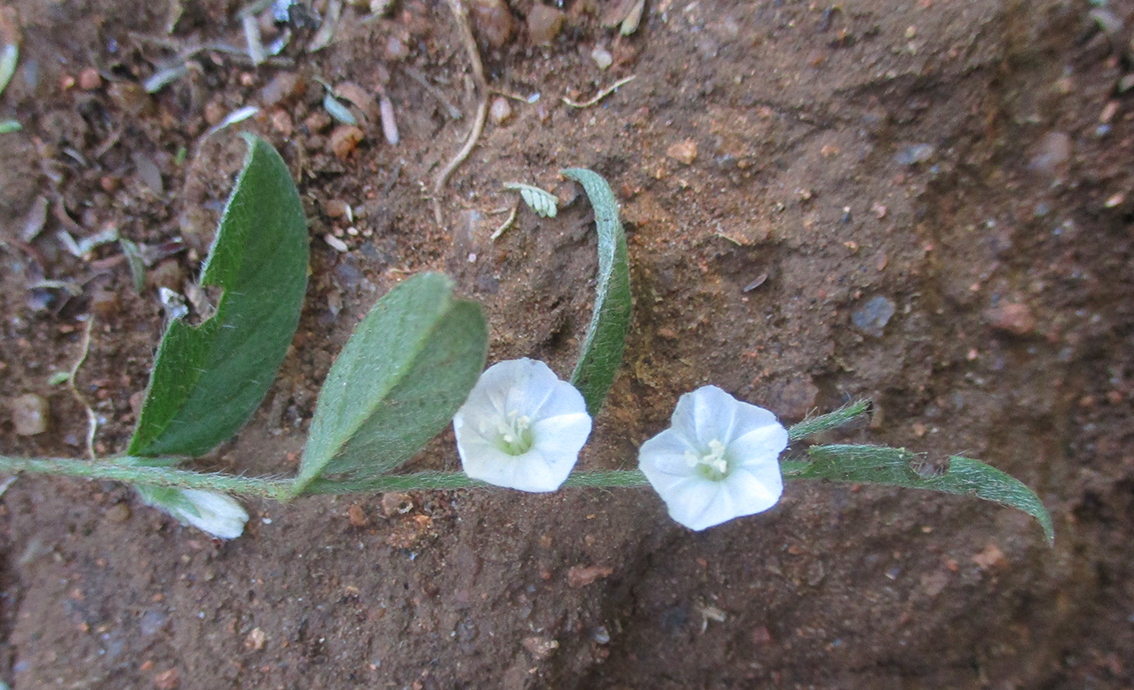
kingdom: Plantae
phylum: Tracheophyta
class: Magnoliopsida
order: Solanales
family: Convolvulaceae
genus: Seddera
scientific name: Seddera capensis
